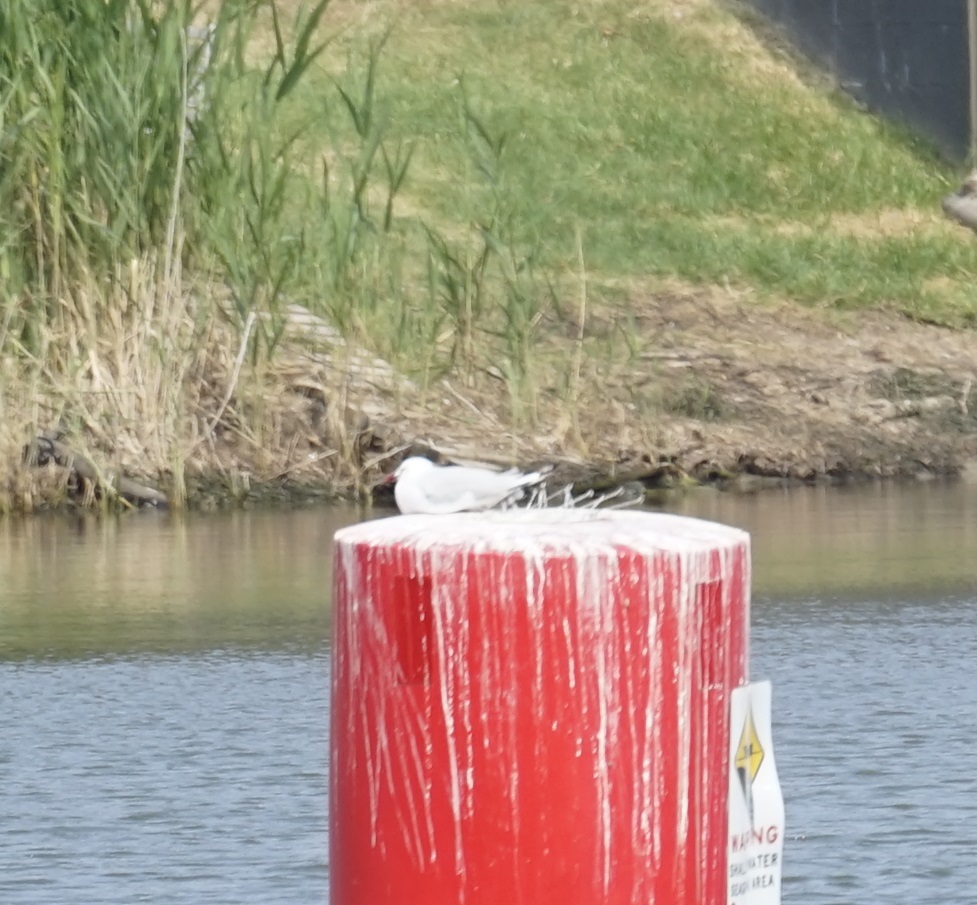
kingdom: Animalia
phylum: Chordata
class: Aves
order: Charadriiformes
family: Laridae
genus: Chroicocephalus
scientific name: Chroicocephalus novaehollandiae
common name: Silver gull
